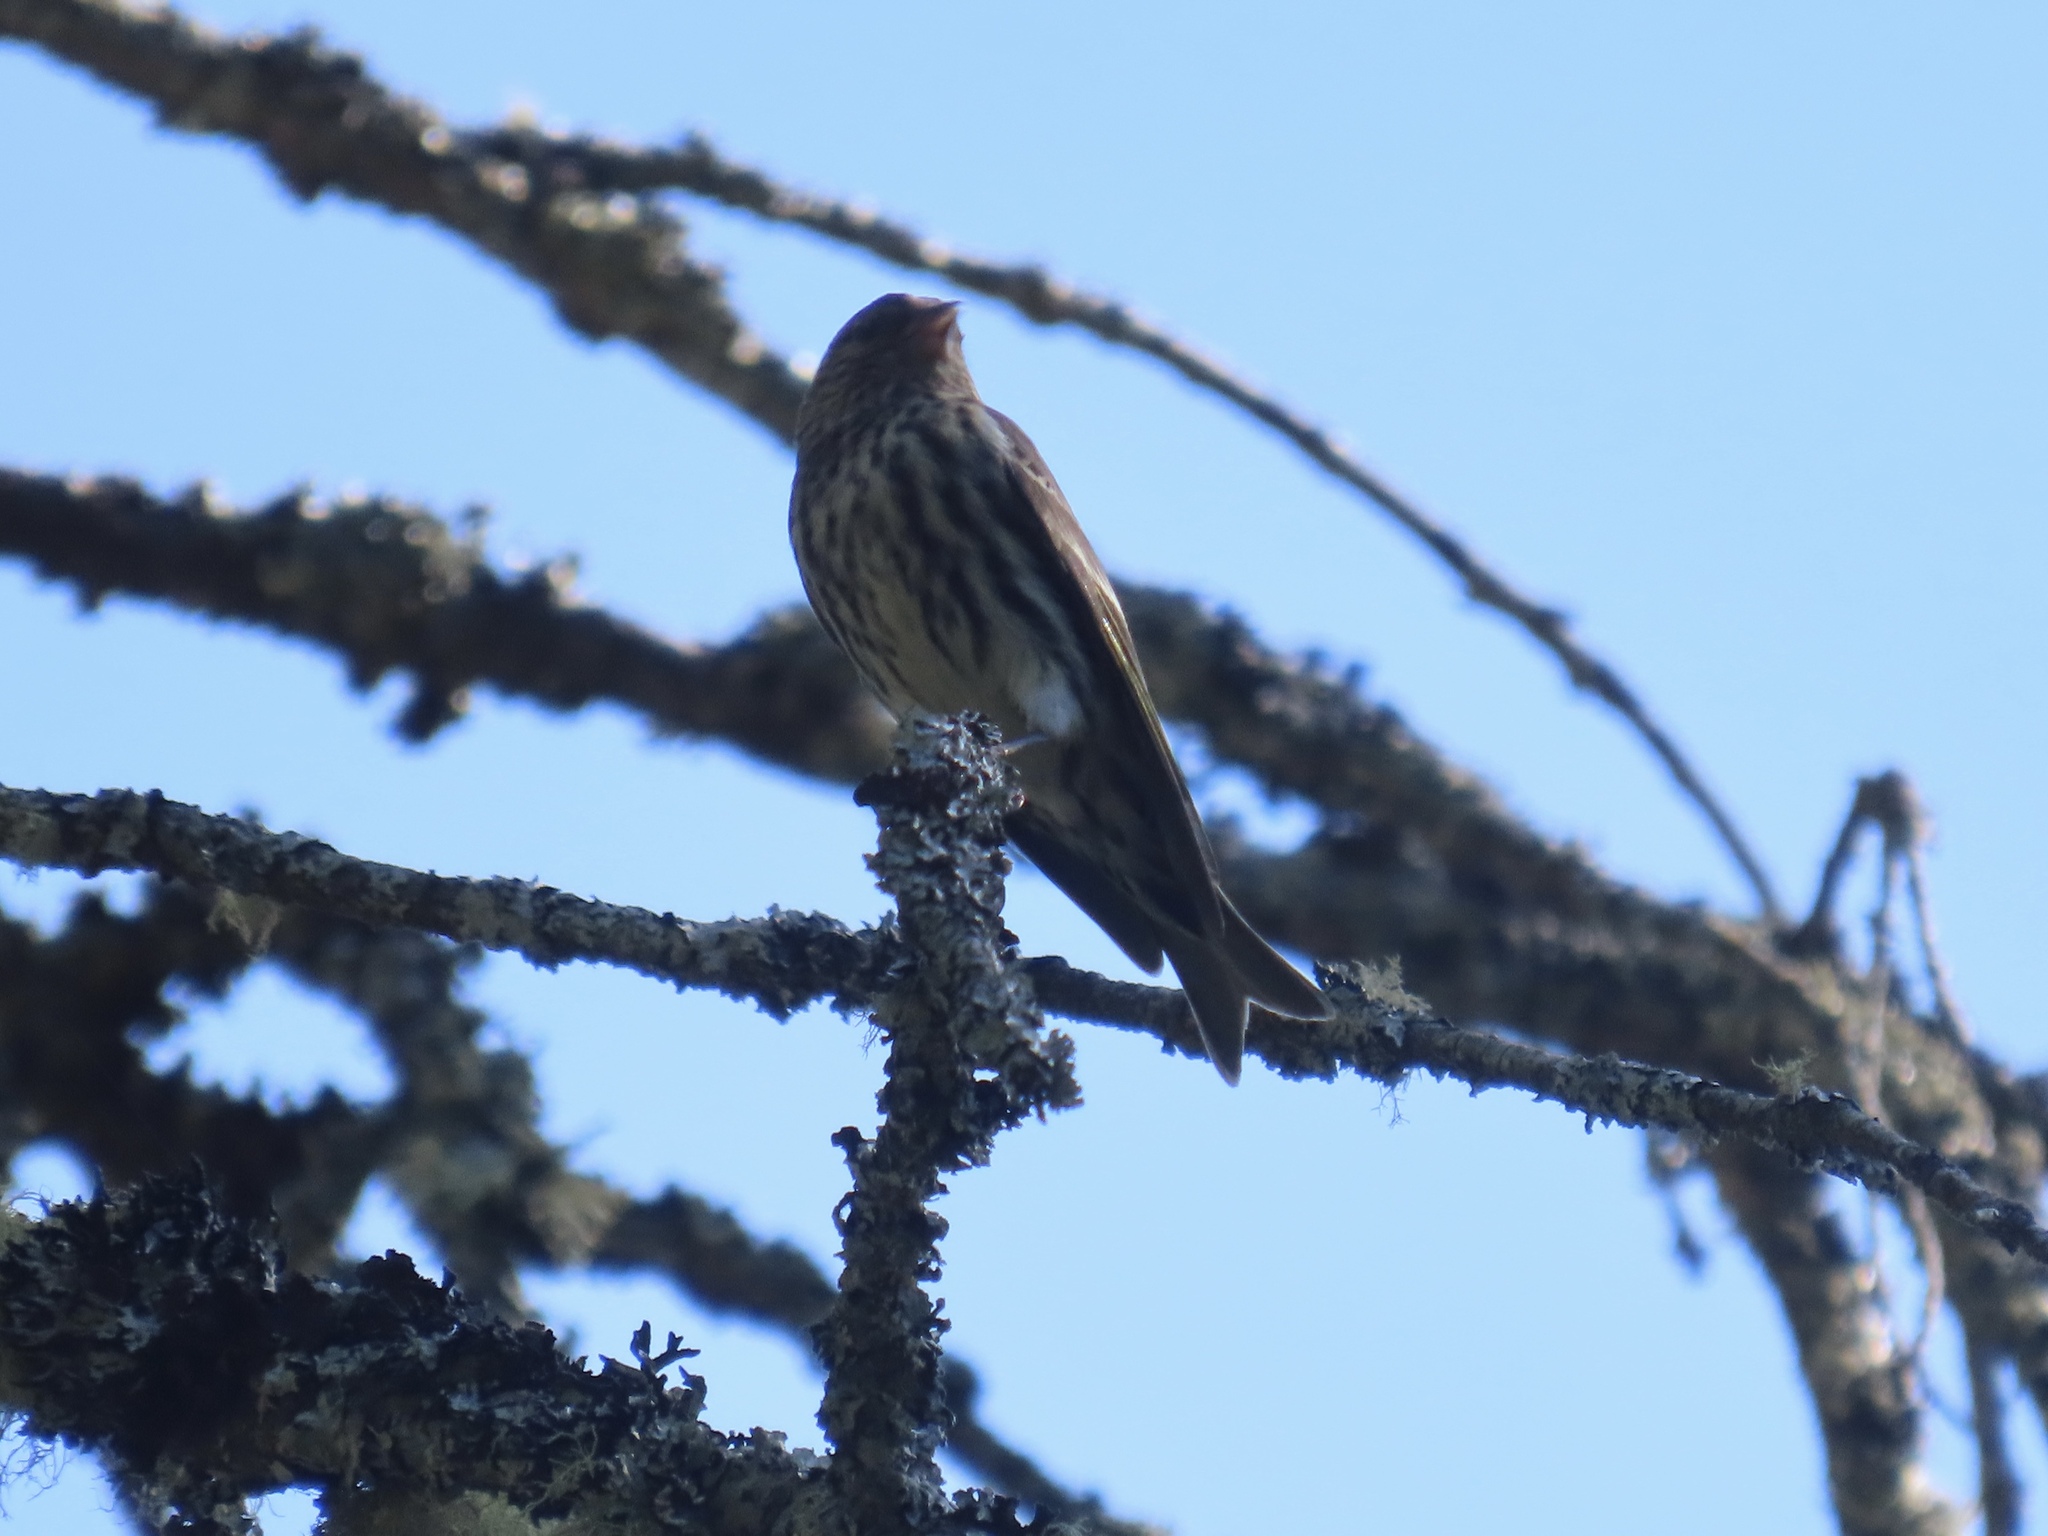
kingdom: Animalia
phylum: Chordata
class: Aves
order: Passeriformes
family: Fringillidae
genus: Spinus
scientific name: Spinus pinus
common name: Pine siskin
